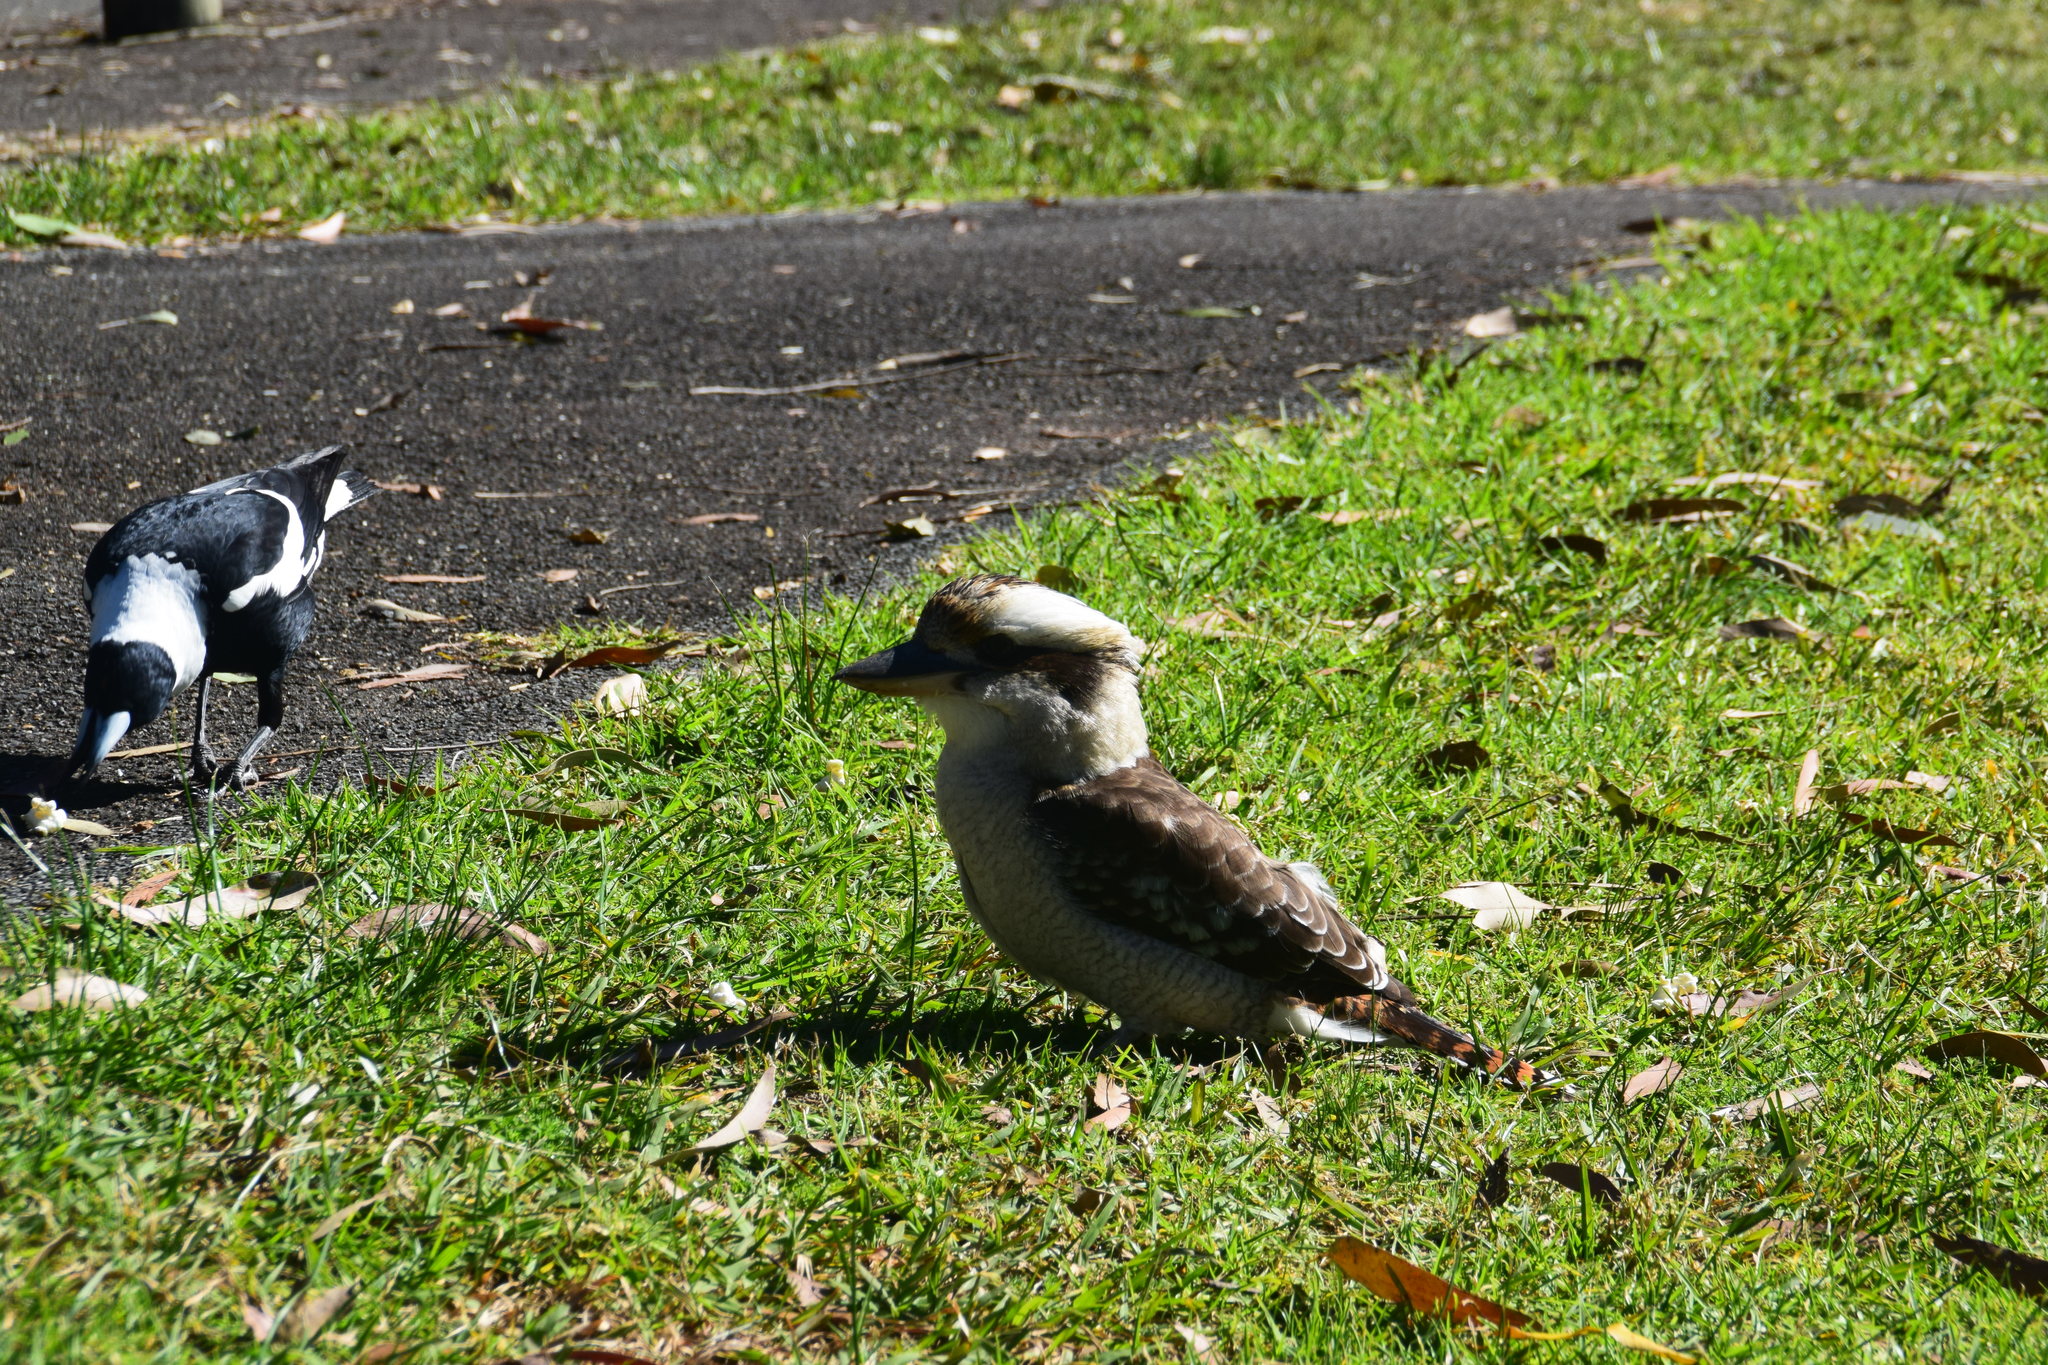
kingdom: Animalia
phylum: Chordata
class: Aves
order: Passeriformes
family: Cracticidae
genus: Gymnorhina
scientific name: Gymnorhina tibicen
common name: Australian magpie
